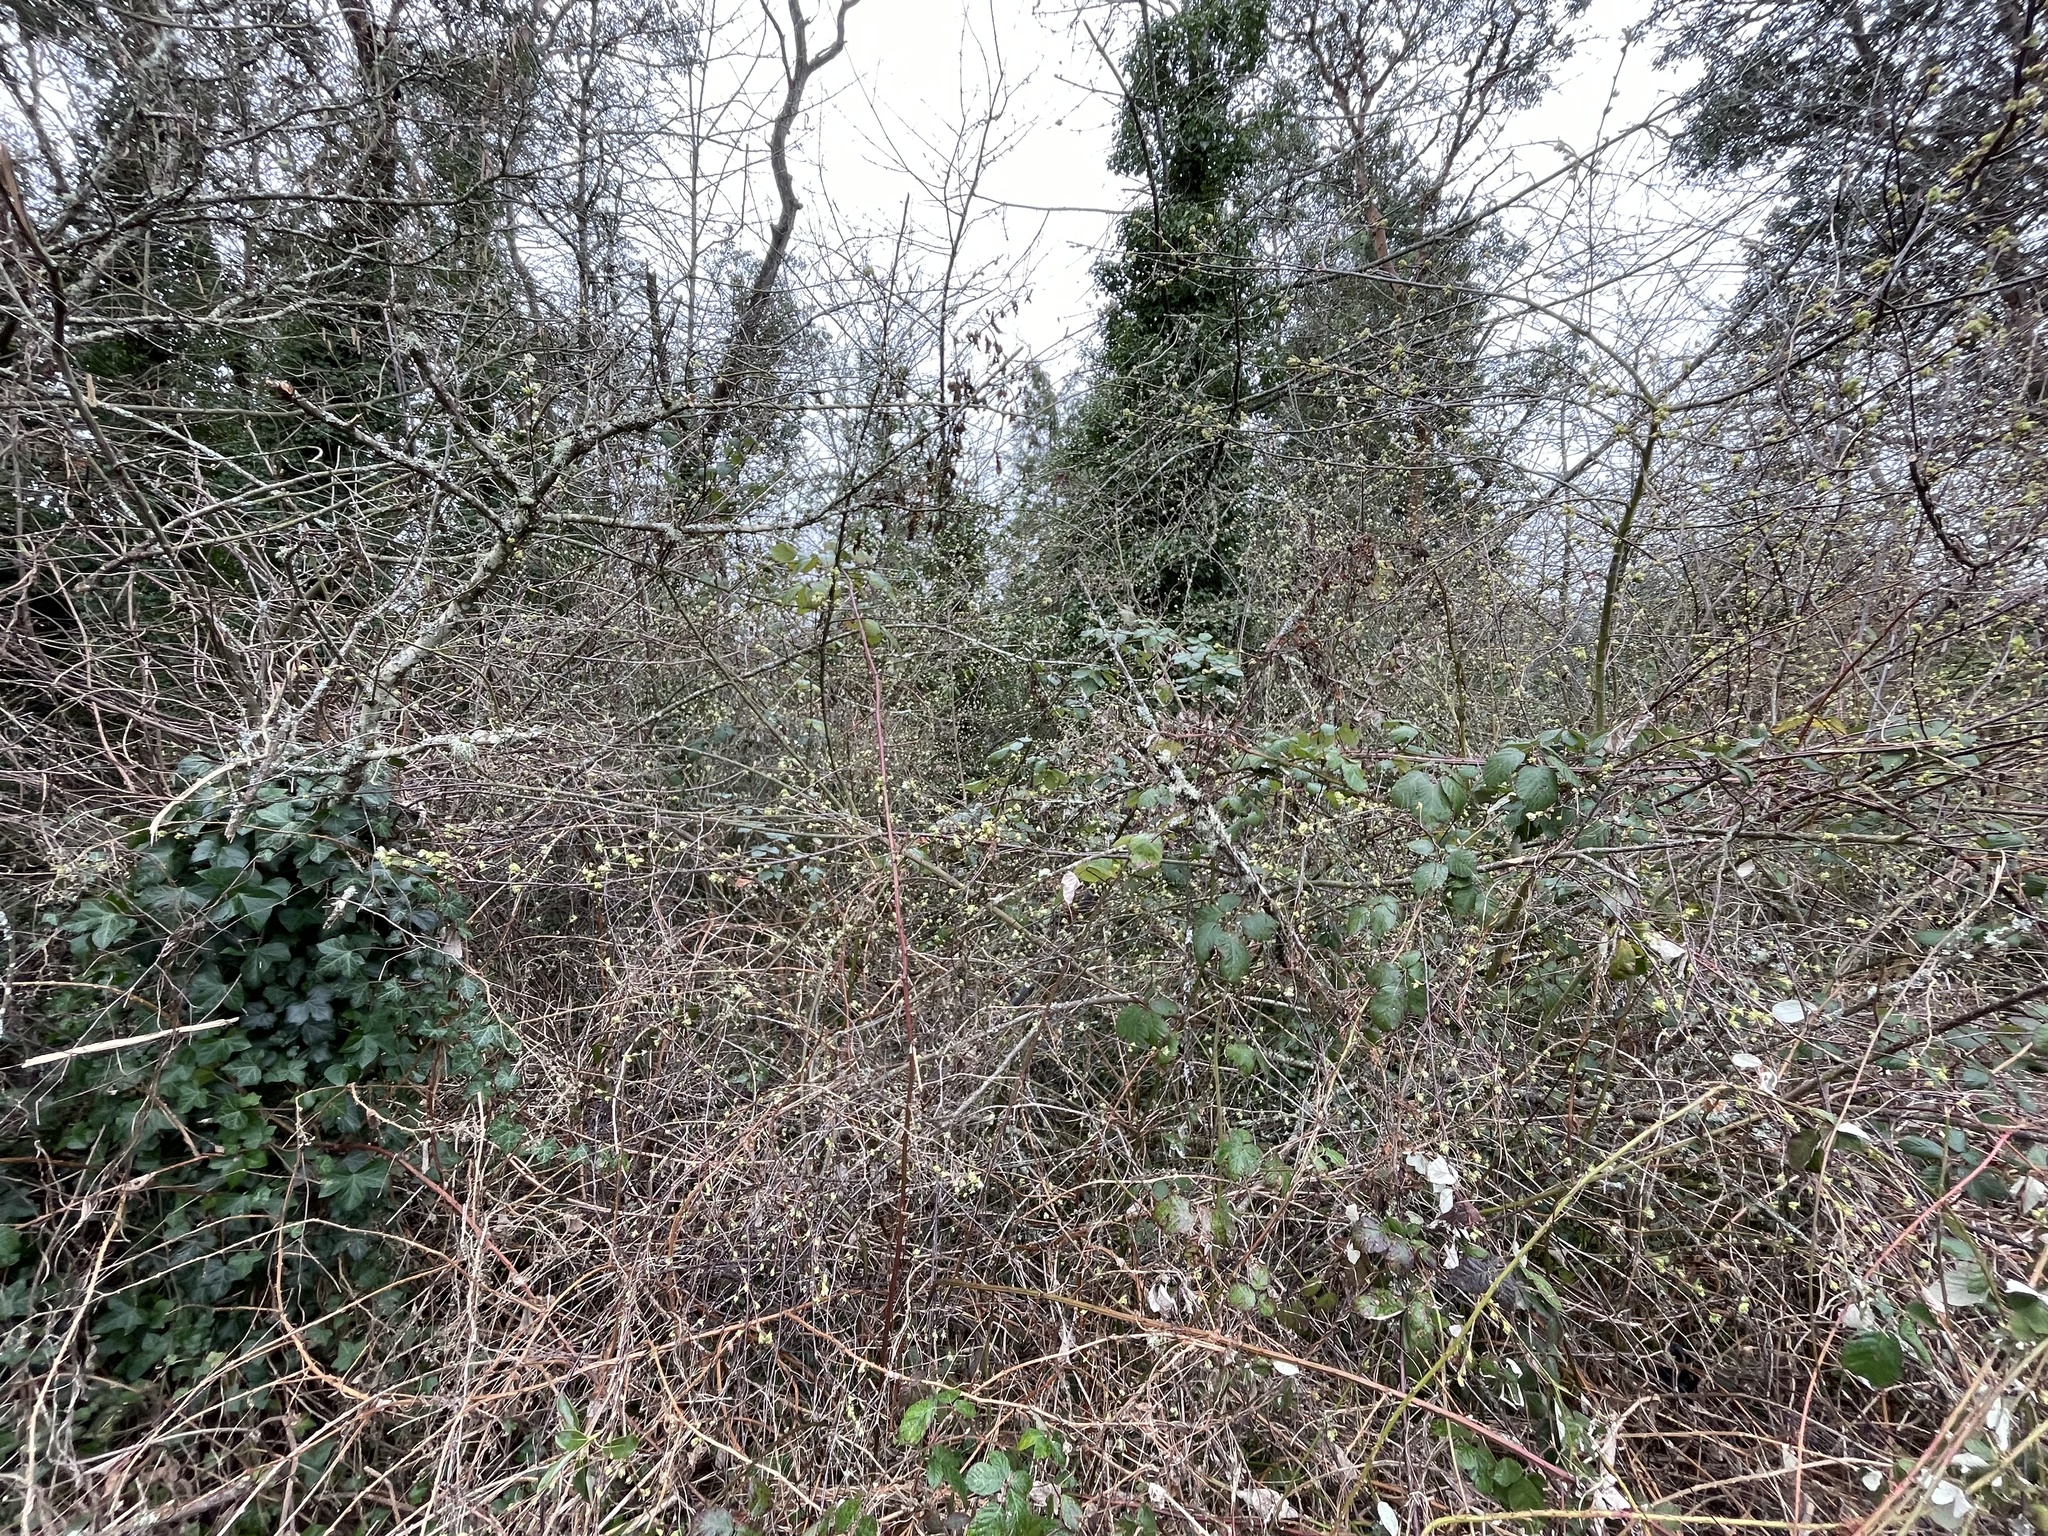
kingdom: Plantae
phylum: Tracheophyta
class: Magnoliopsida
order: Rosales
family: Rosaceae
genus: Oemleria
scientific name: Oemleria cerasiformis
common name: Osoberry
